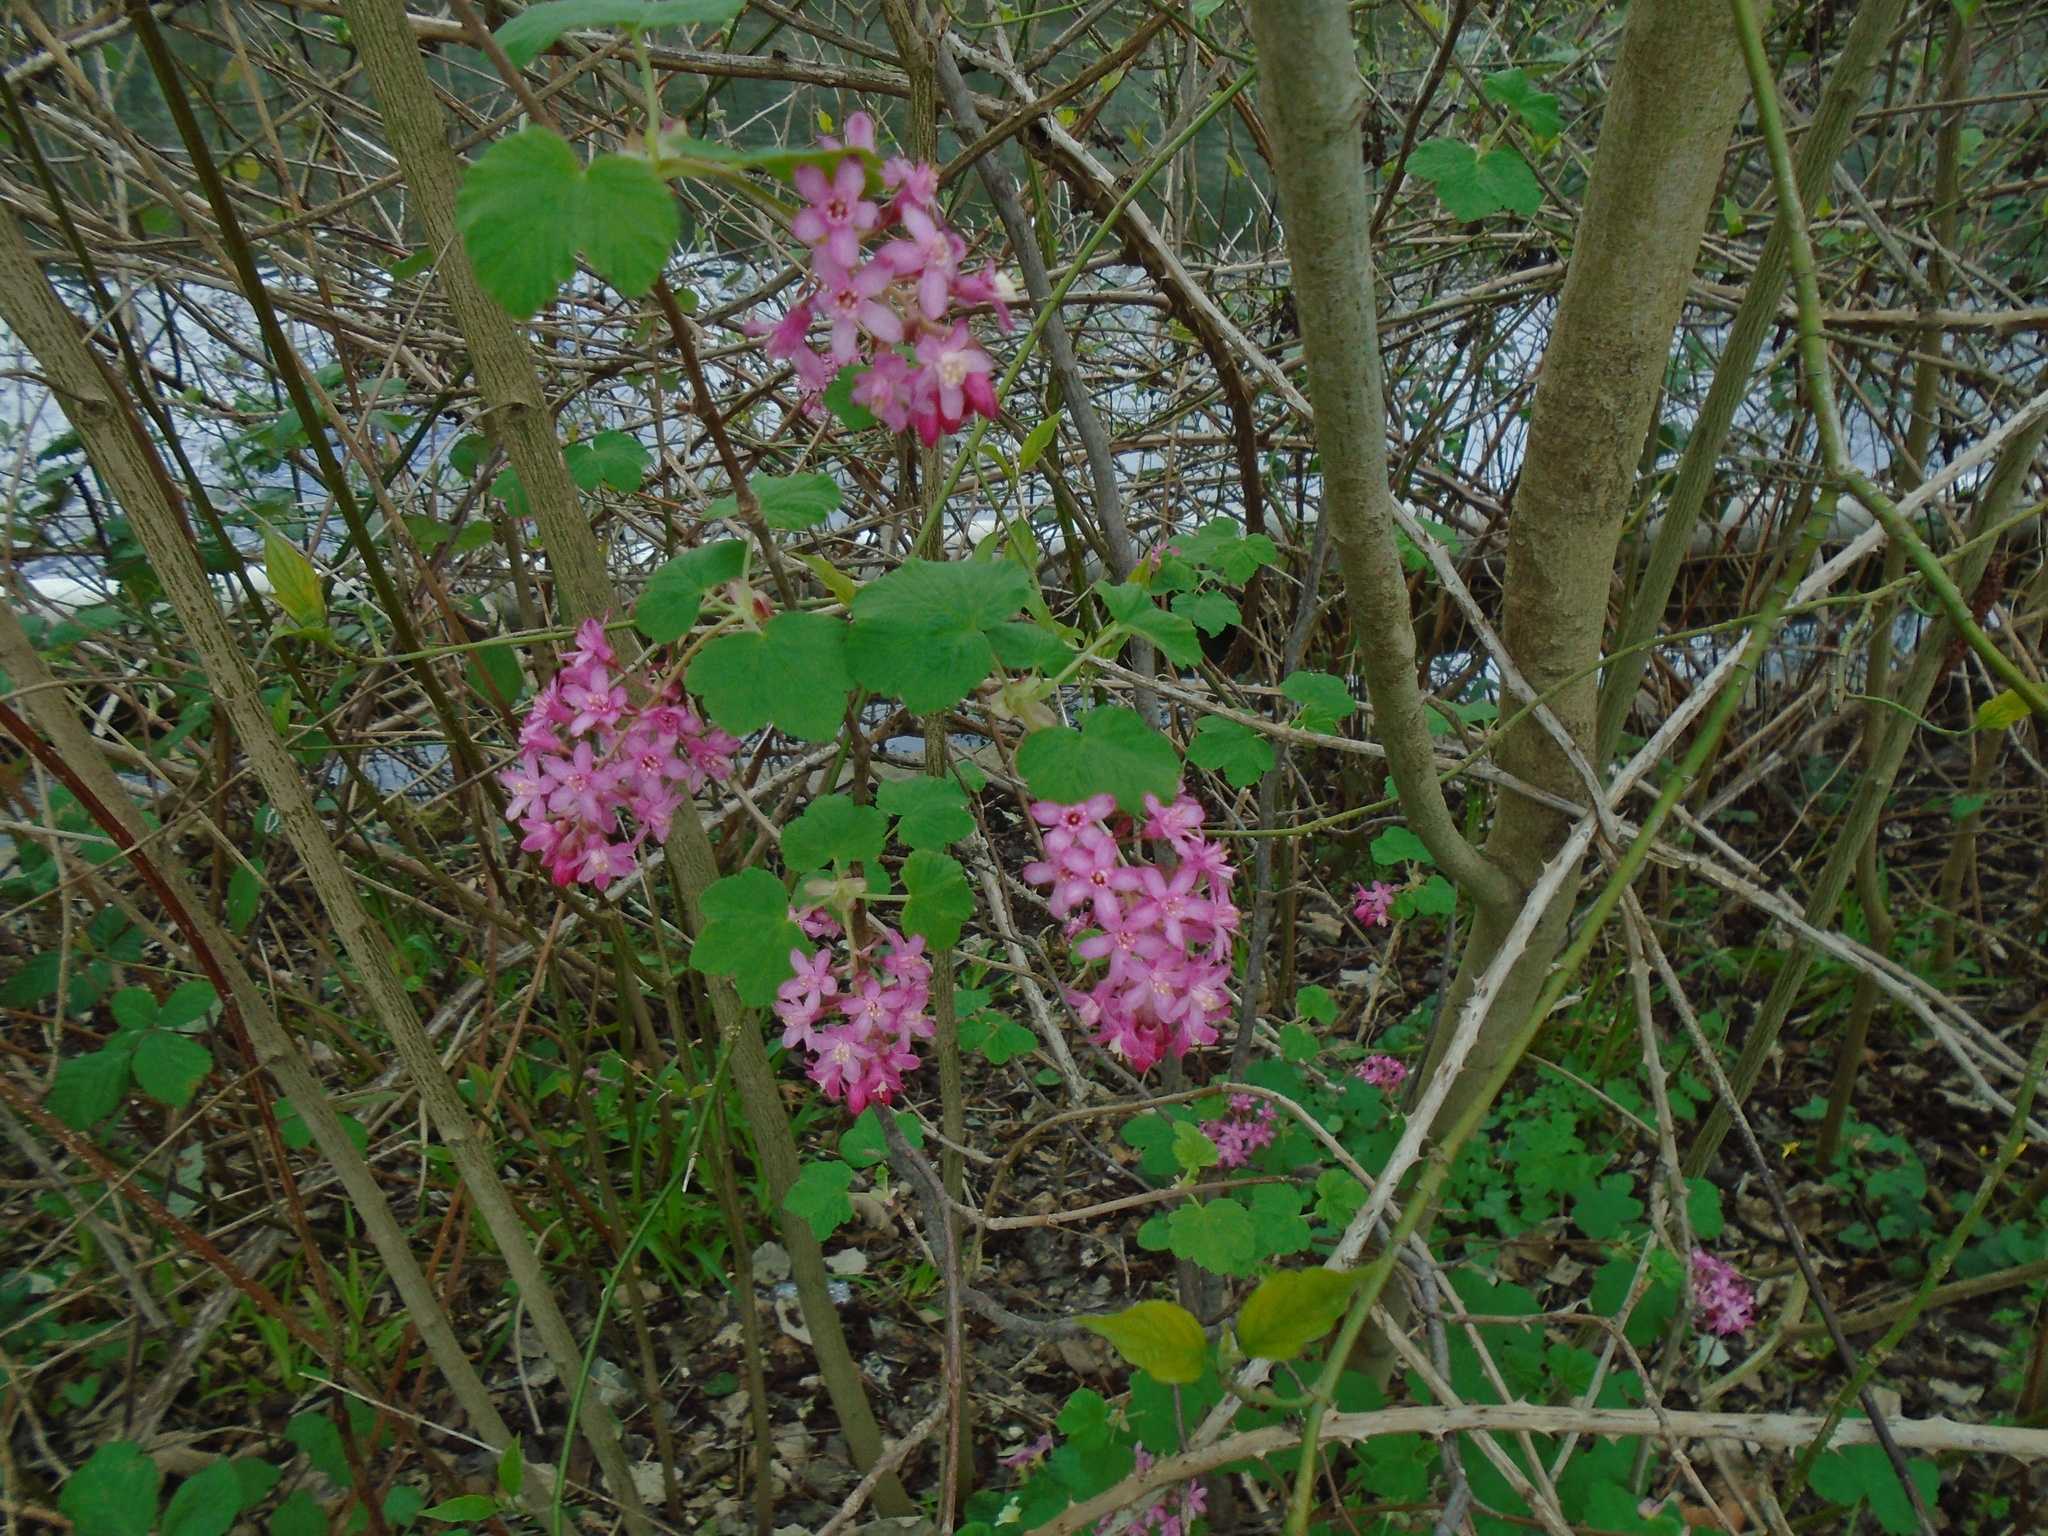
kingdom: Plantae
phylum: Tracheophyta
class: Magnoliopsida
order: Saxifragales
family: Grossulariaceae
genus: Ribes
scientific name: Ribes sanguineum
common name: Flowering currant
